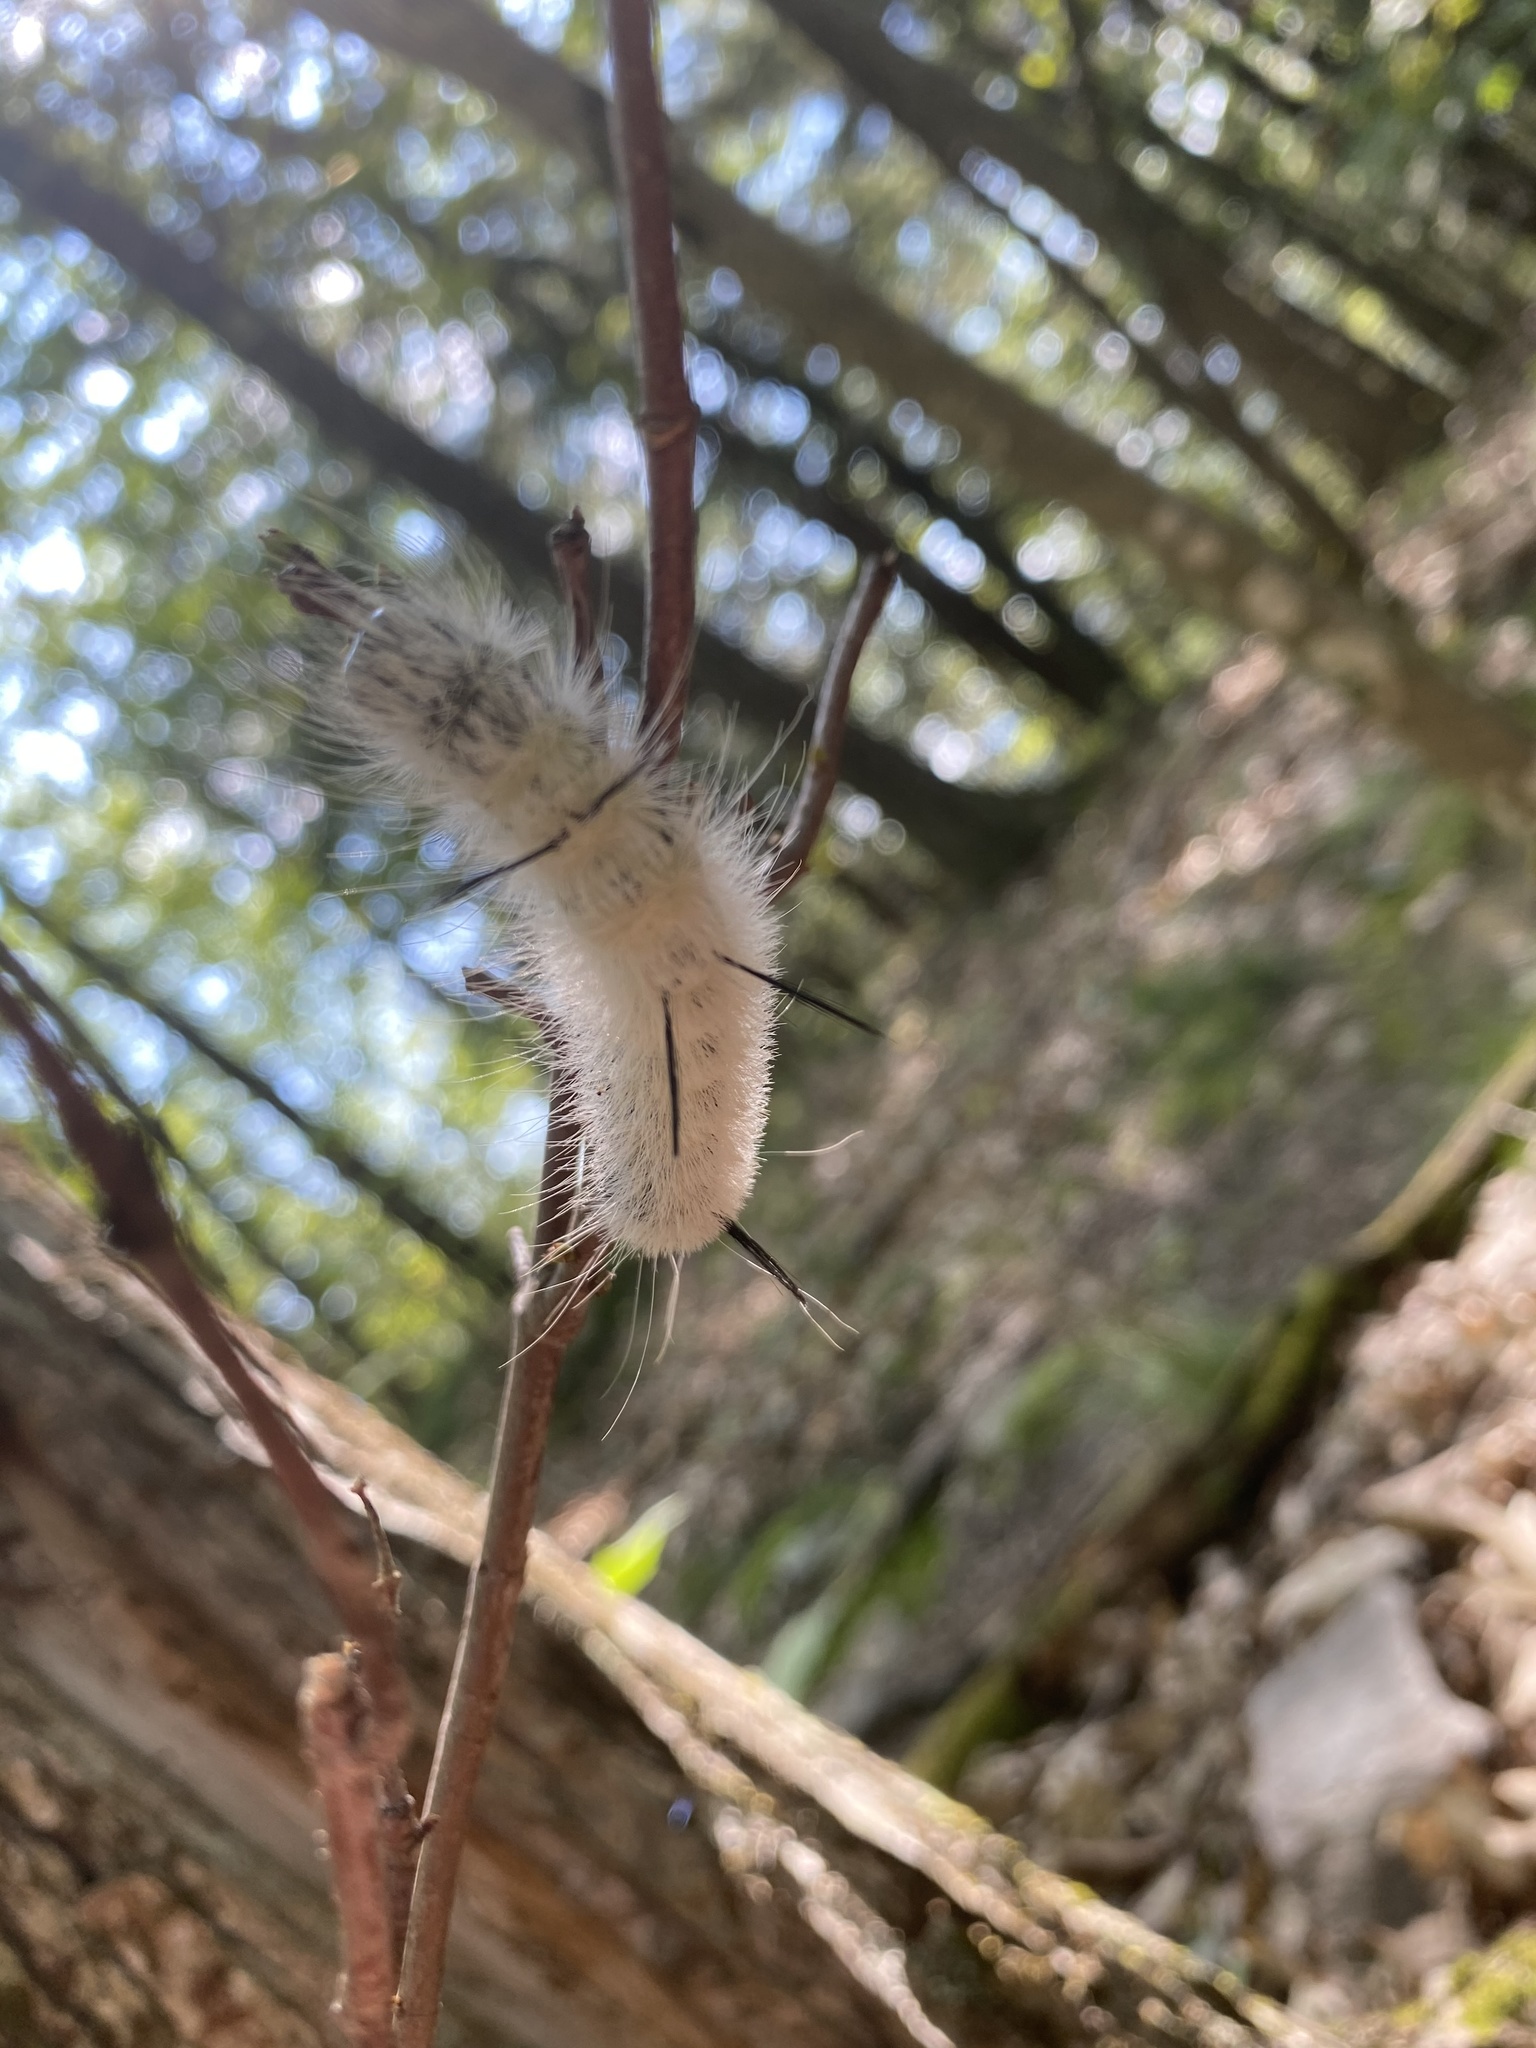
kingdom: Animalia
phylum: Arthropoda
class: Insecta
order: Lepidoptera
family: Noctuidae
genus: Acronicta
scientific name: Acronicta americana
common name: American dagger
